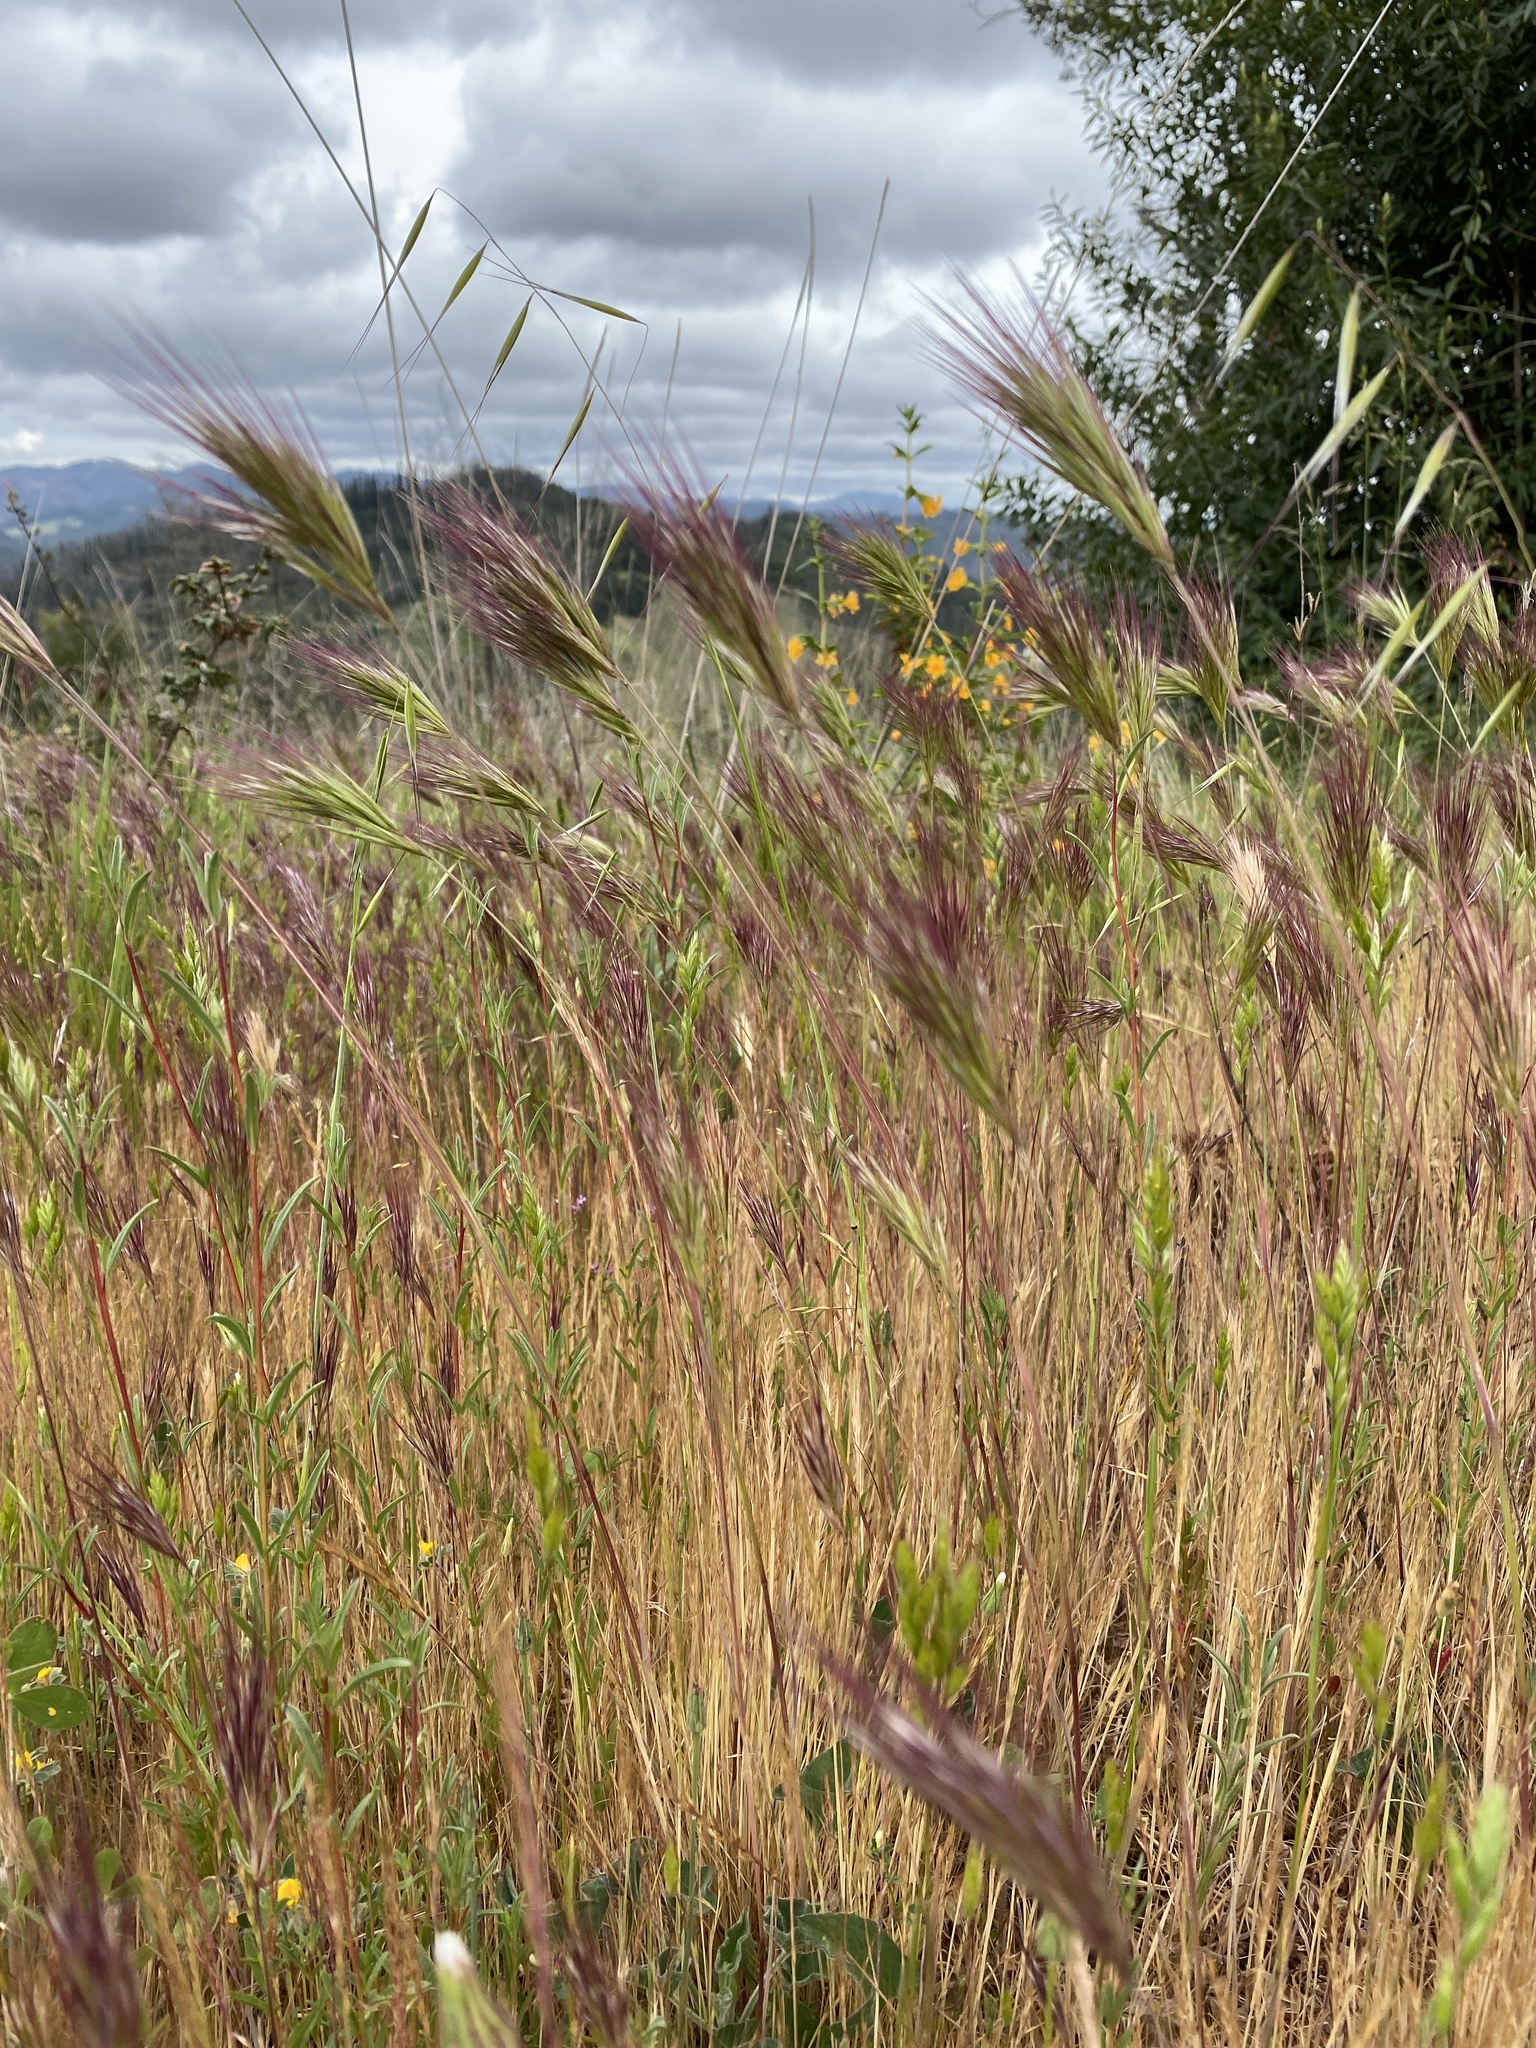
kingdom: Plantae
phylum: Tracheophyta
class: Liliopsida
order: Poales
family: Poaceae
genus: Bromus
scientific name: Bromus rubens
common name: Red brome
